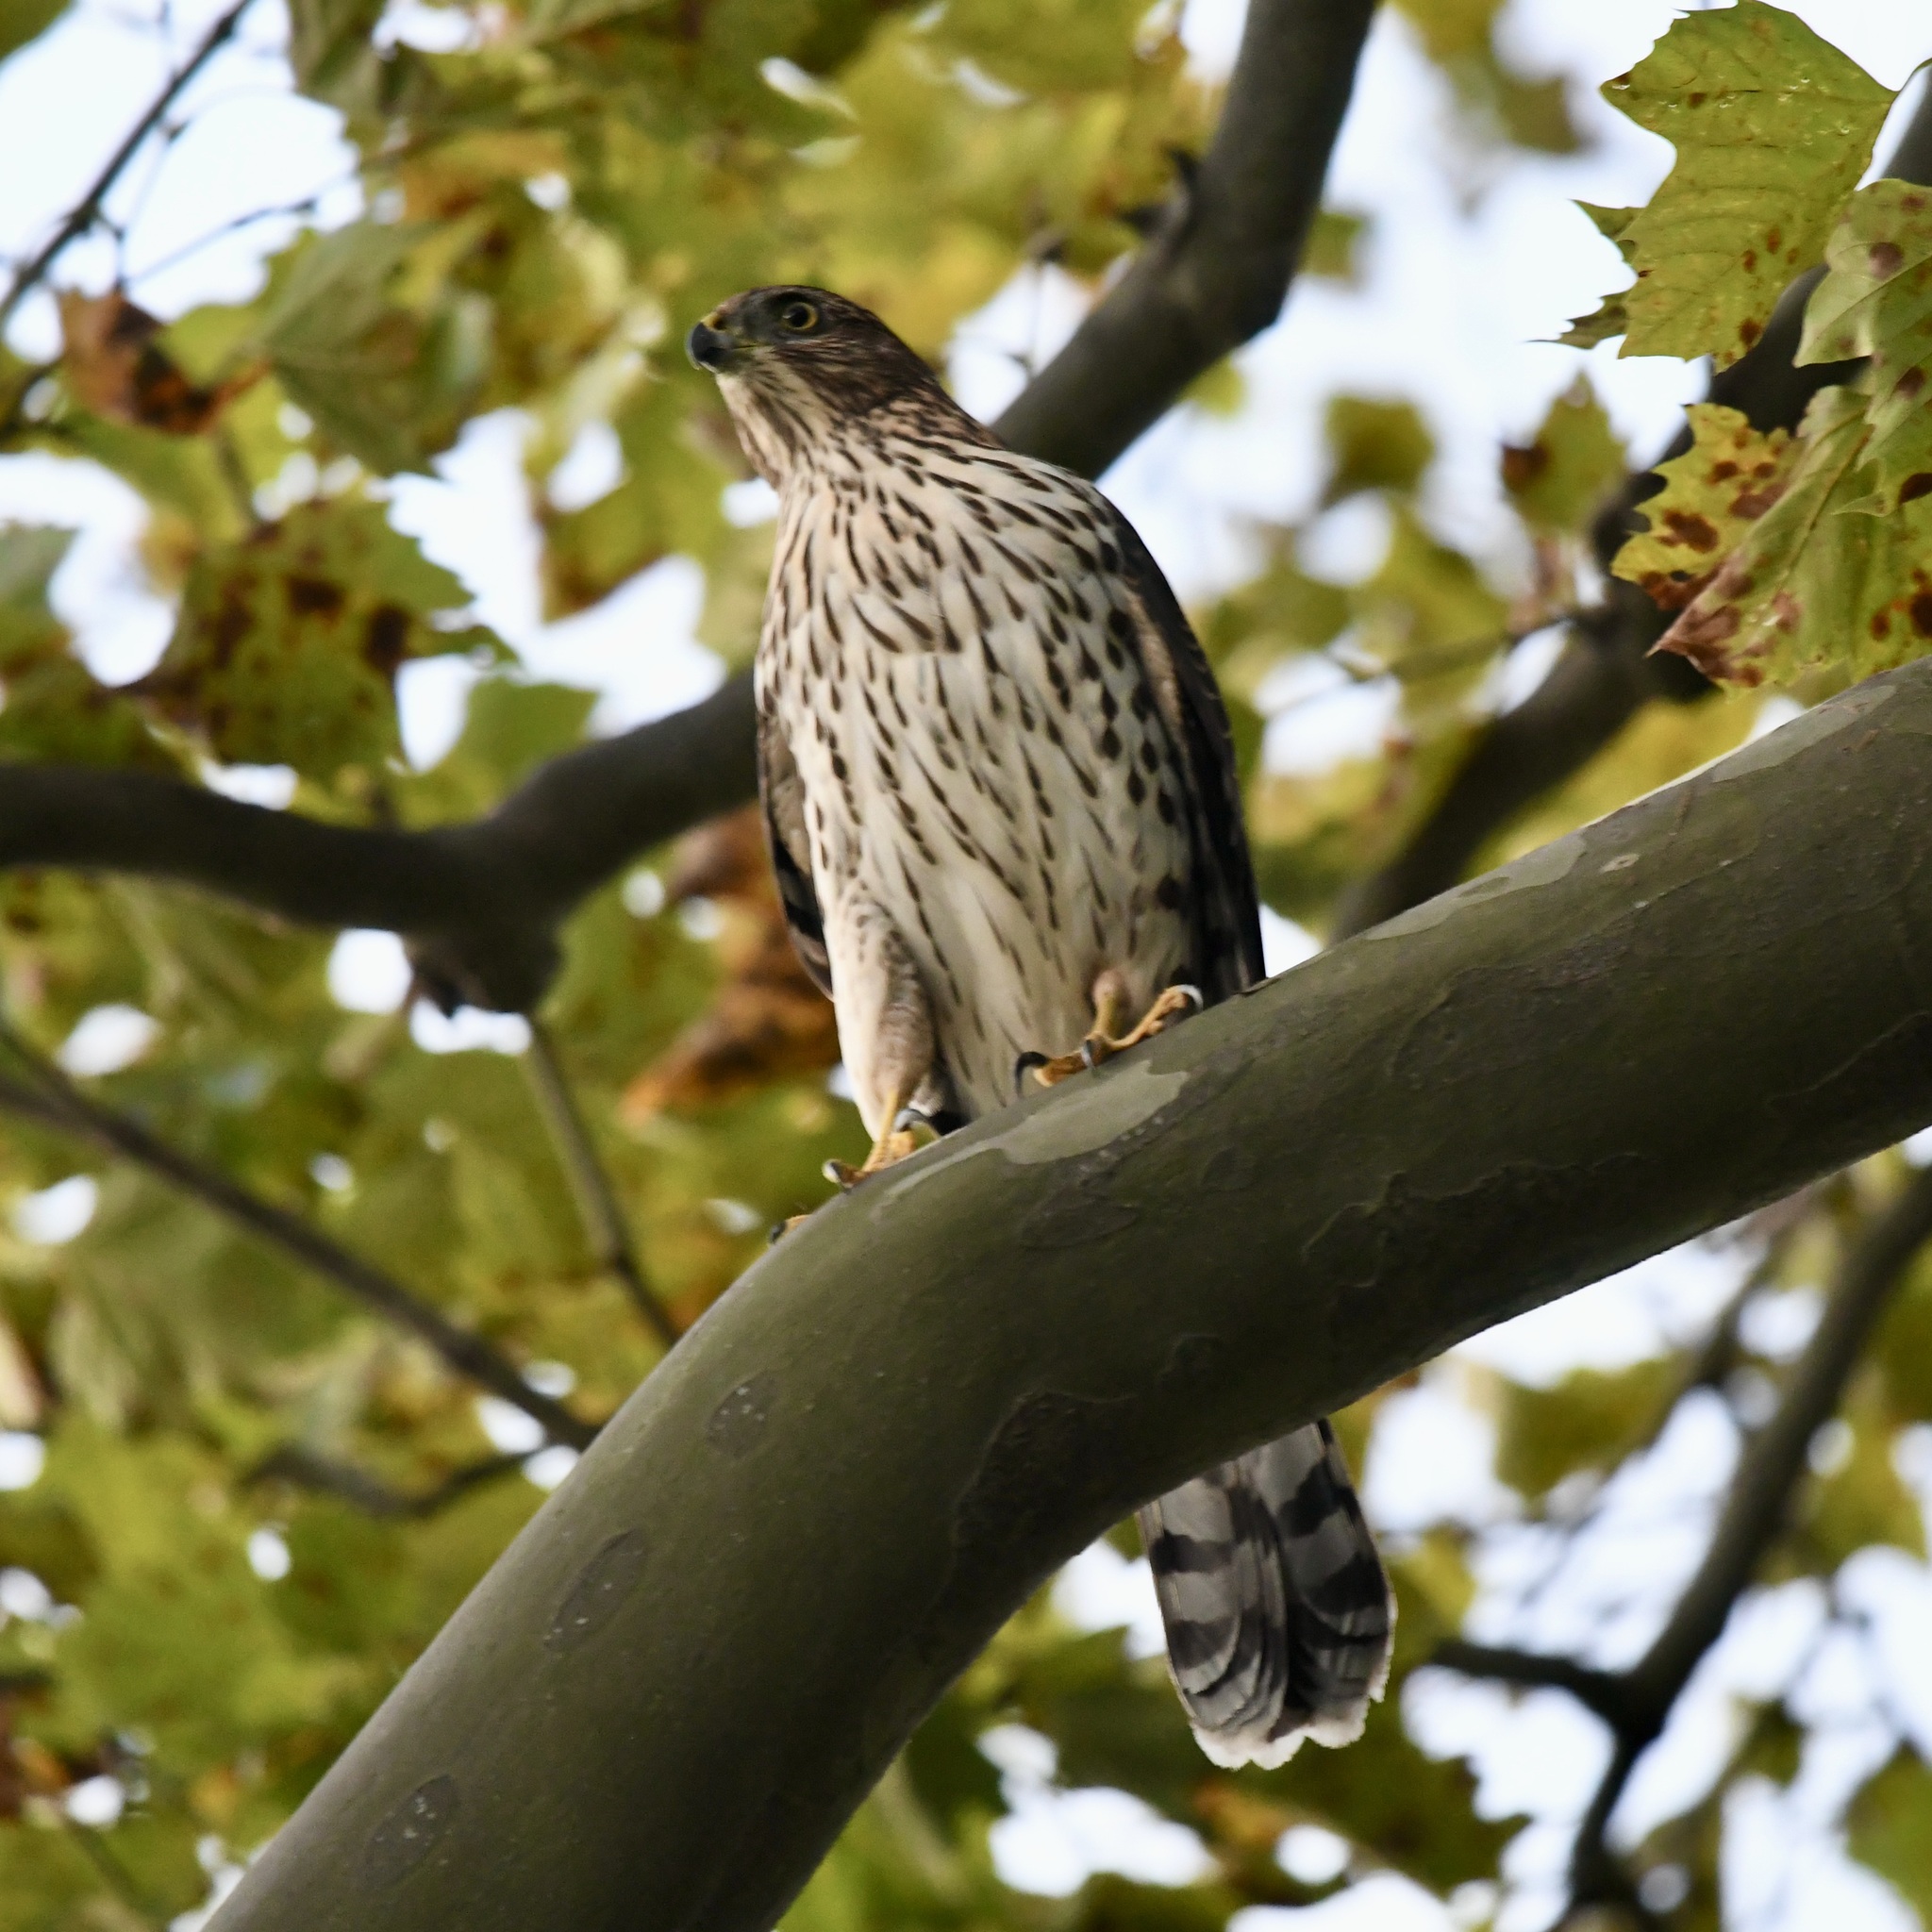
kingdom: Animalia
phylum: Chordata
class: Aves
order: Accipitriformes
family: Accipitridae
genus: Accipiter
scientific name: Accipiter cooperii
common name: Cooper's hawk
